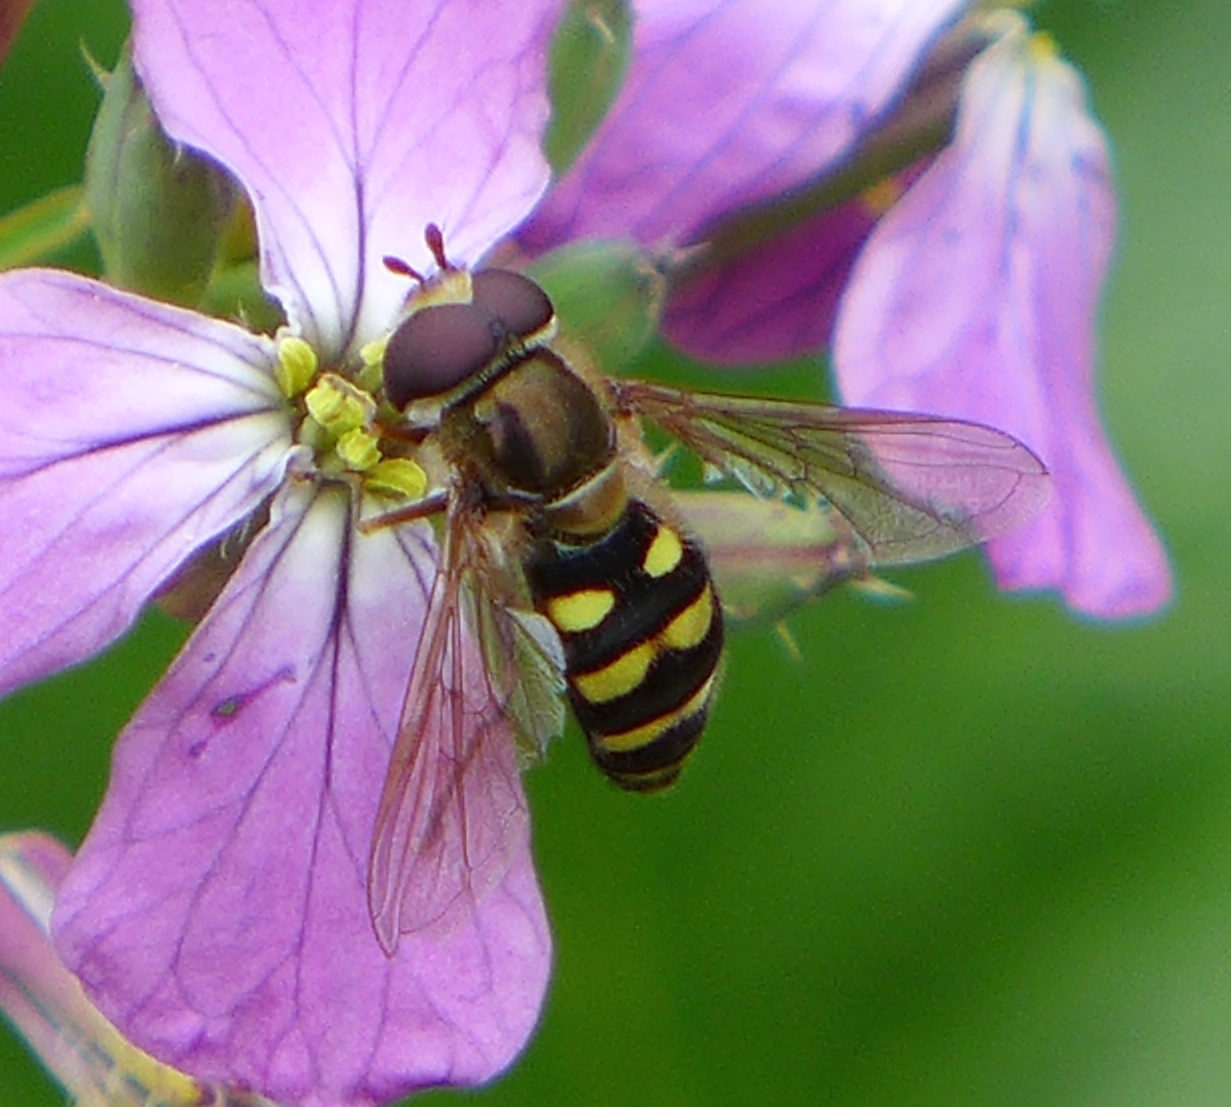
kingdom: Animalia
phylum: Arthropoda
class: Insecta
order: Diptera
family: Syrphidae
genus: Eupeodes
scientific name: Eupeodes fumipennis
